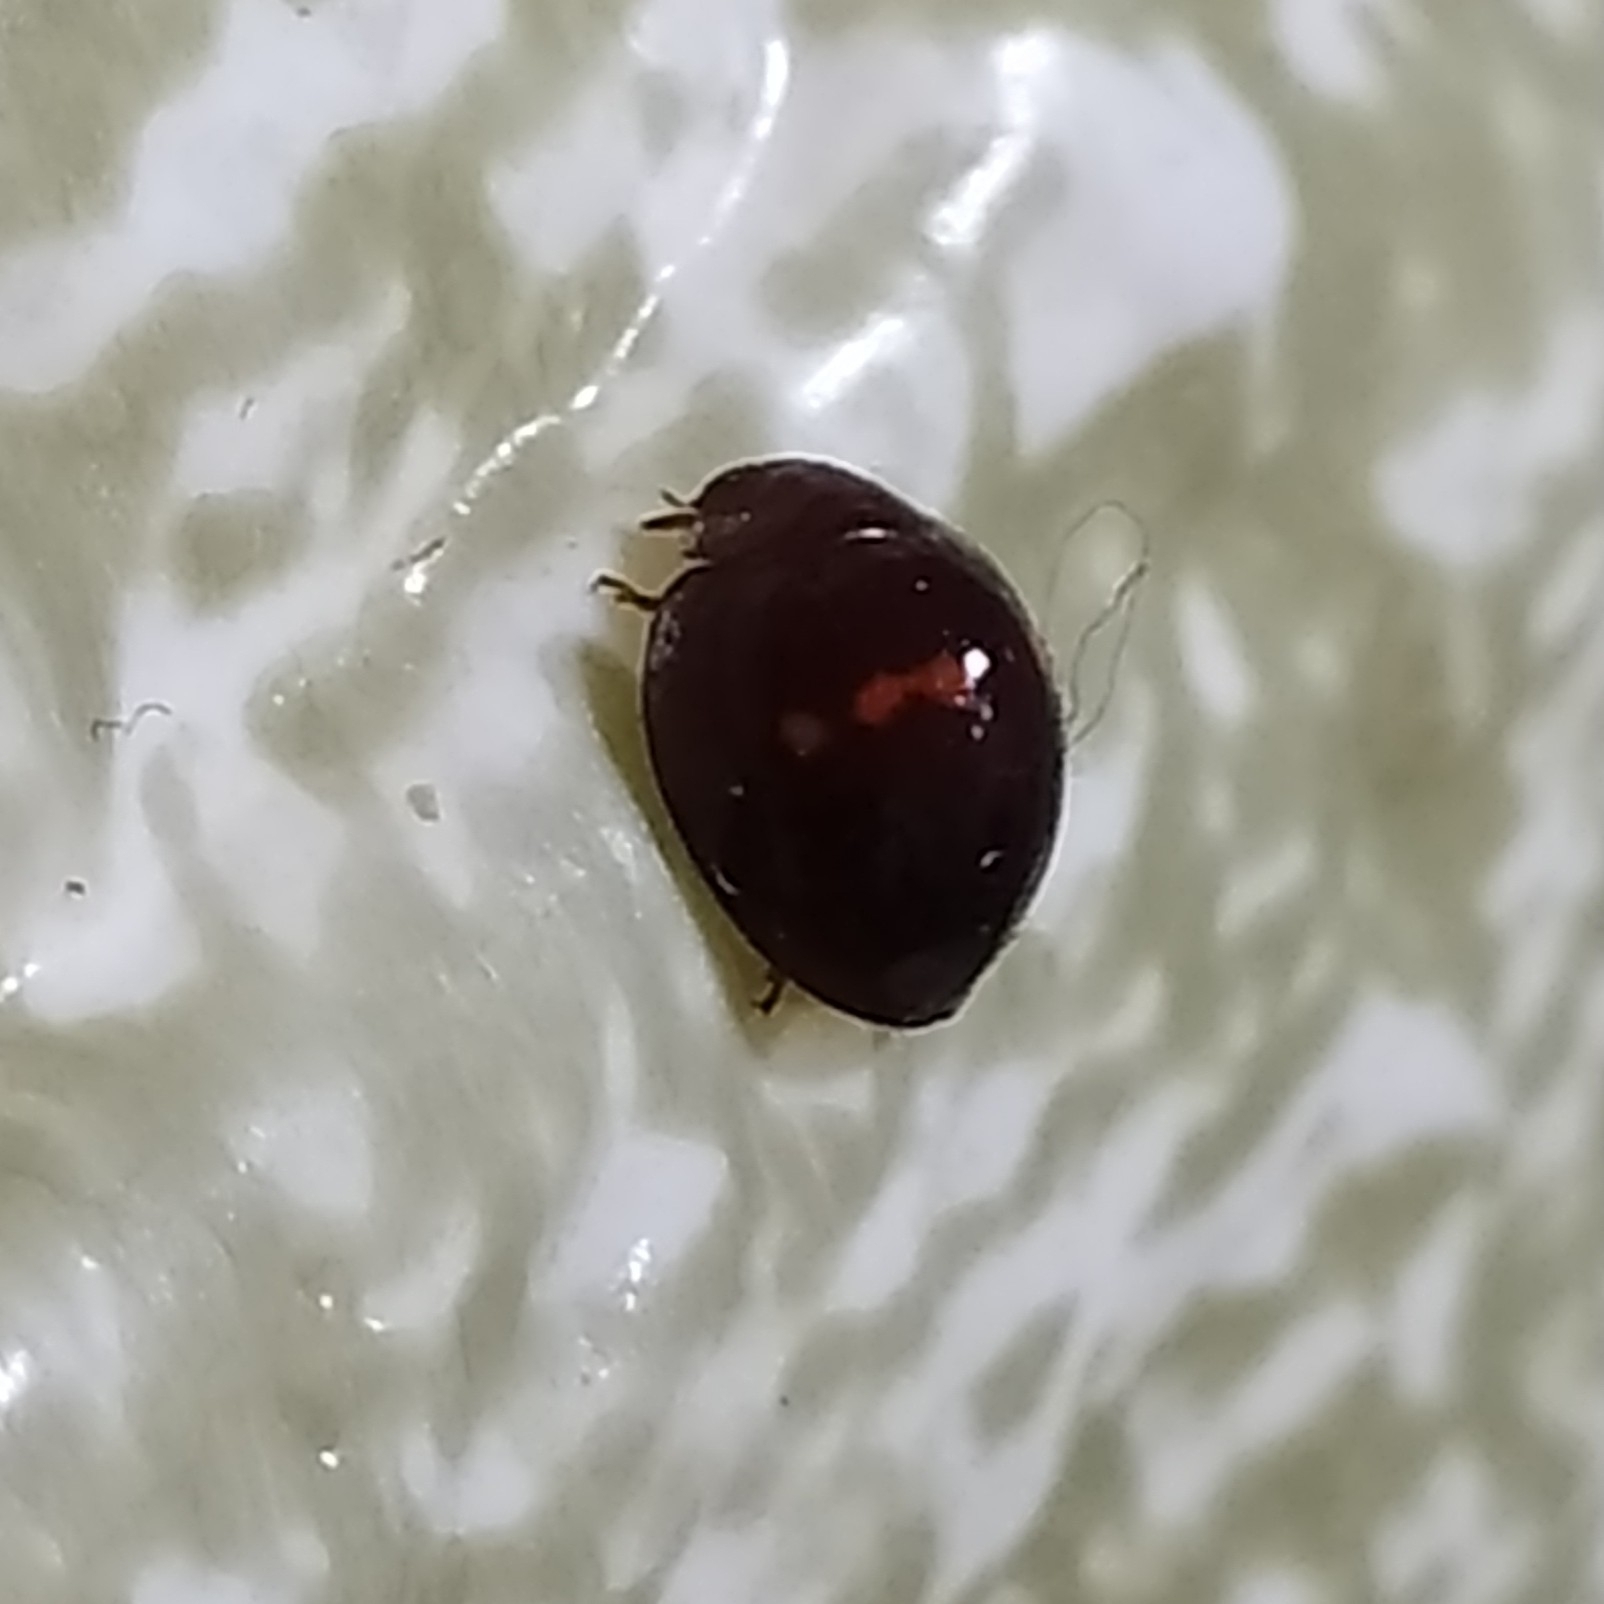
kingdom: Animalia
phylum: Arthropoda
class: Insecta
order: Coleoptera
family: Coccinellidae
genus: Chilocorus
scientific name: Chilocorus bipustulatus
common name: Heather ladybird
